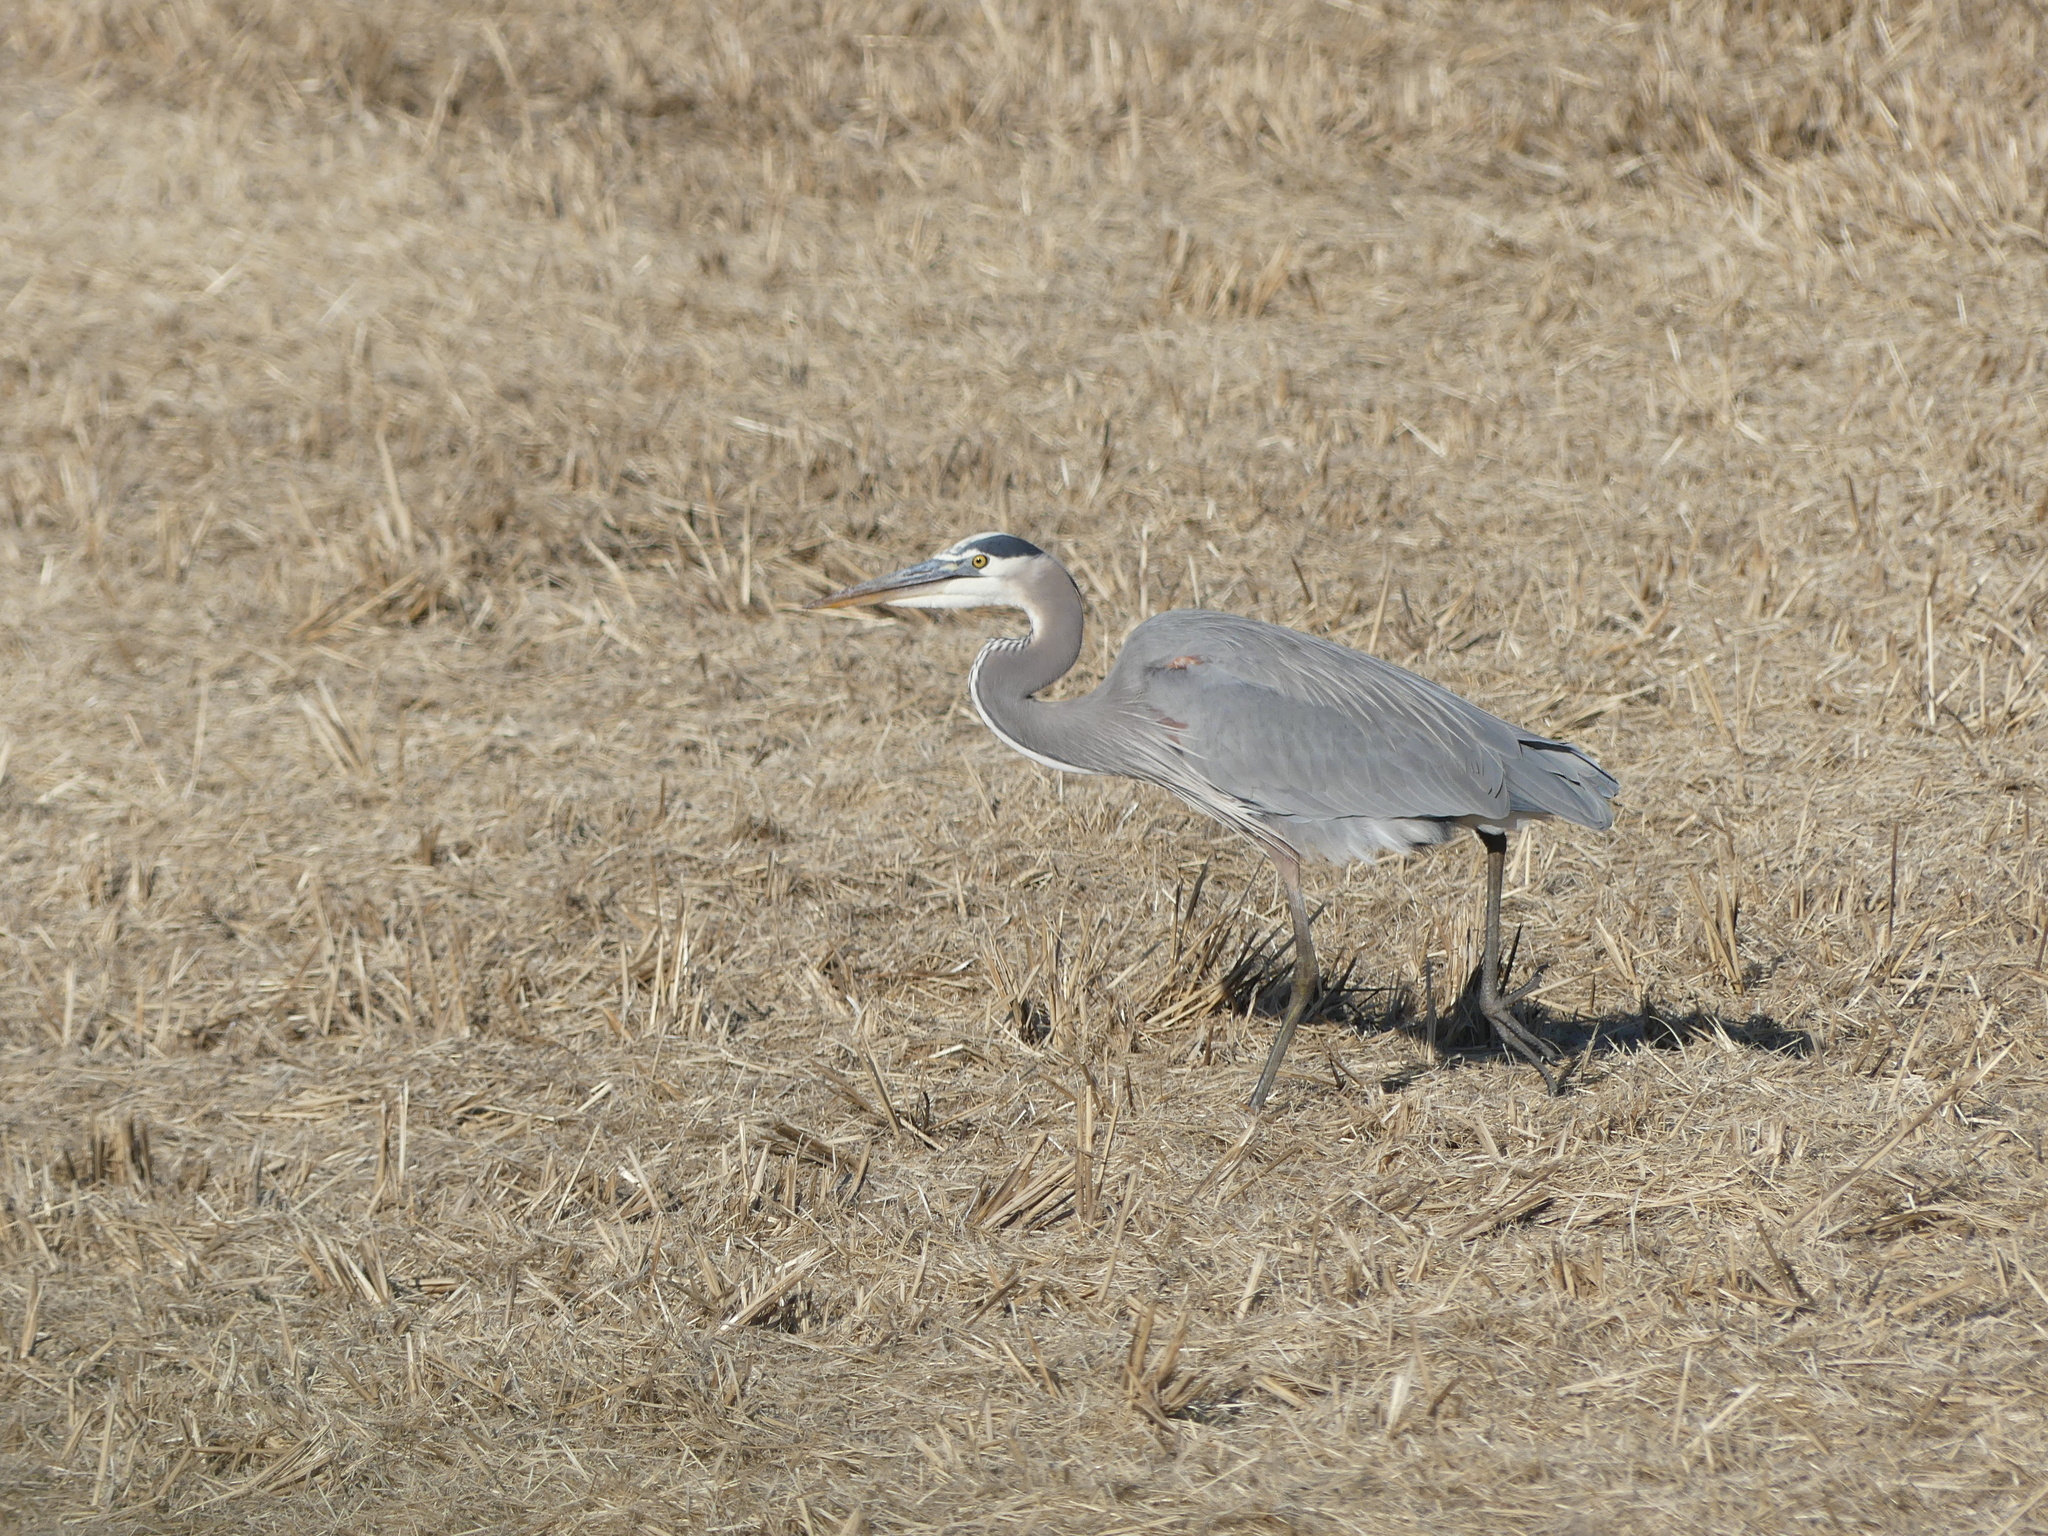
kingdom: Animalia
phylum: Chordata
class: Aves
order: Pelecaniformes
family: Ardeidae
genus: Ardea
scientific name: Ardea herodias
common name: Great blue heron
